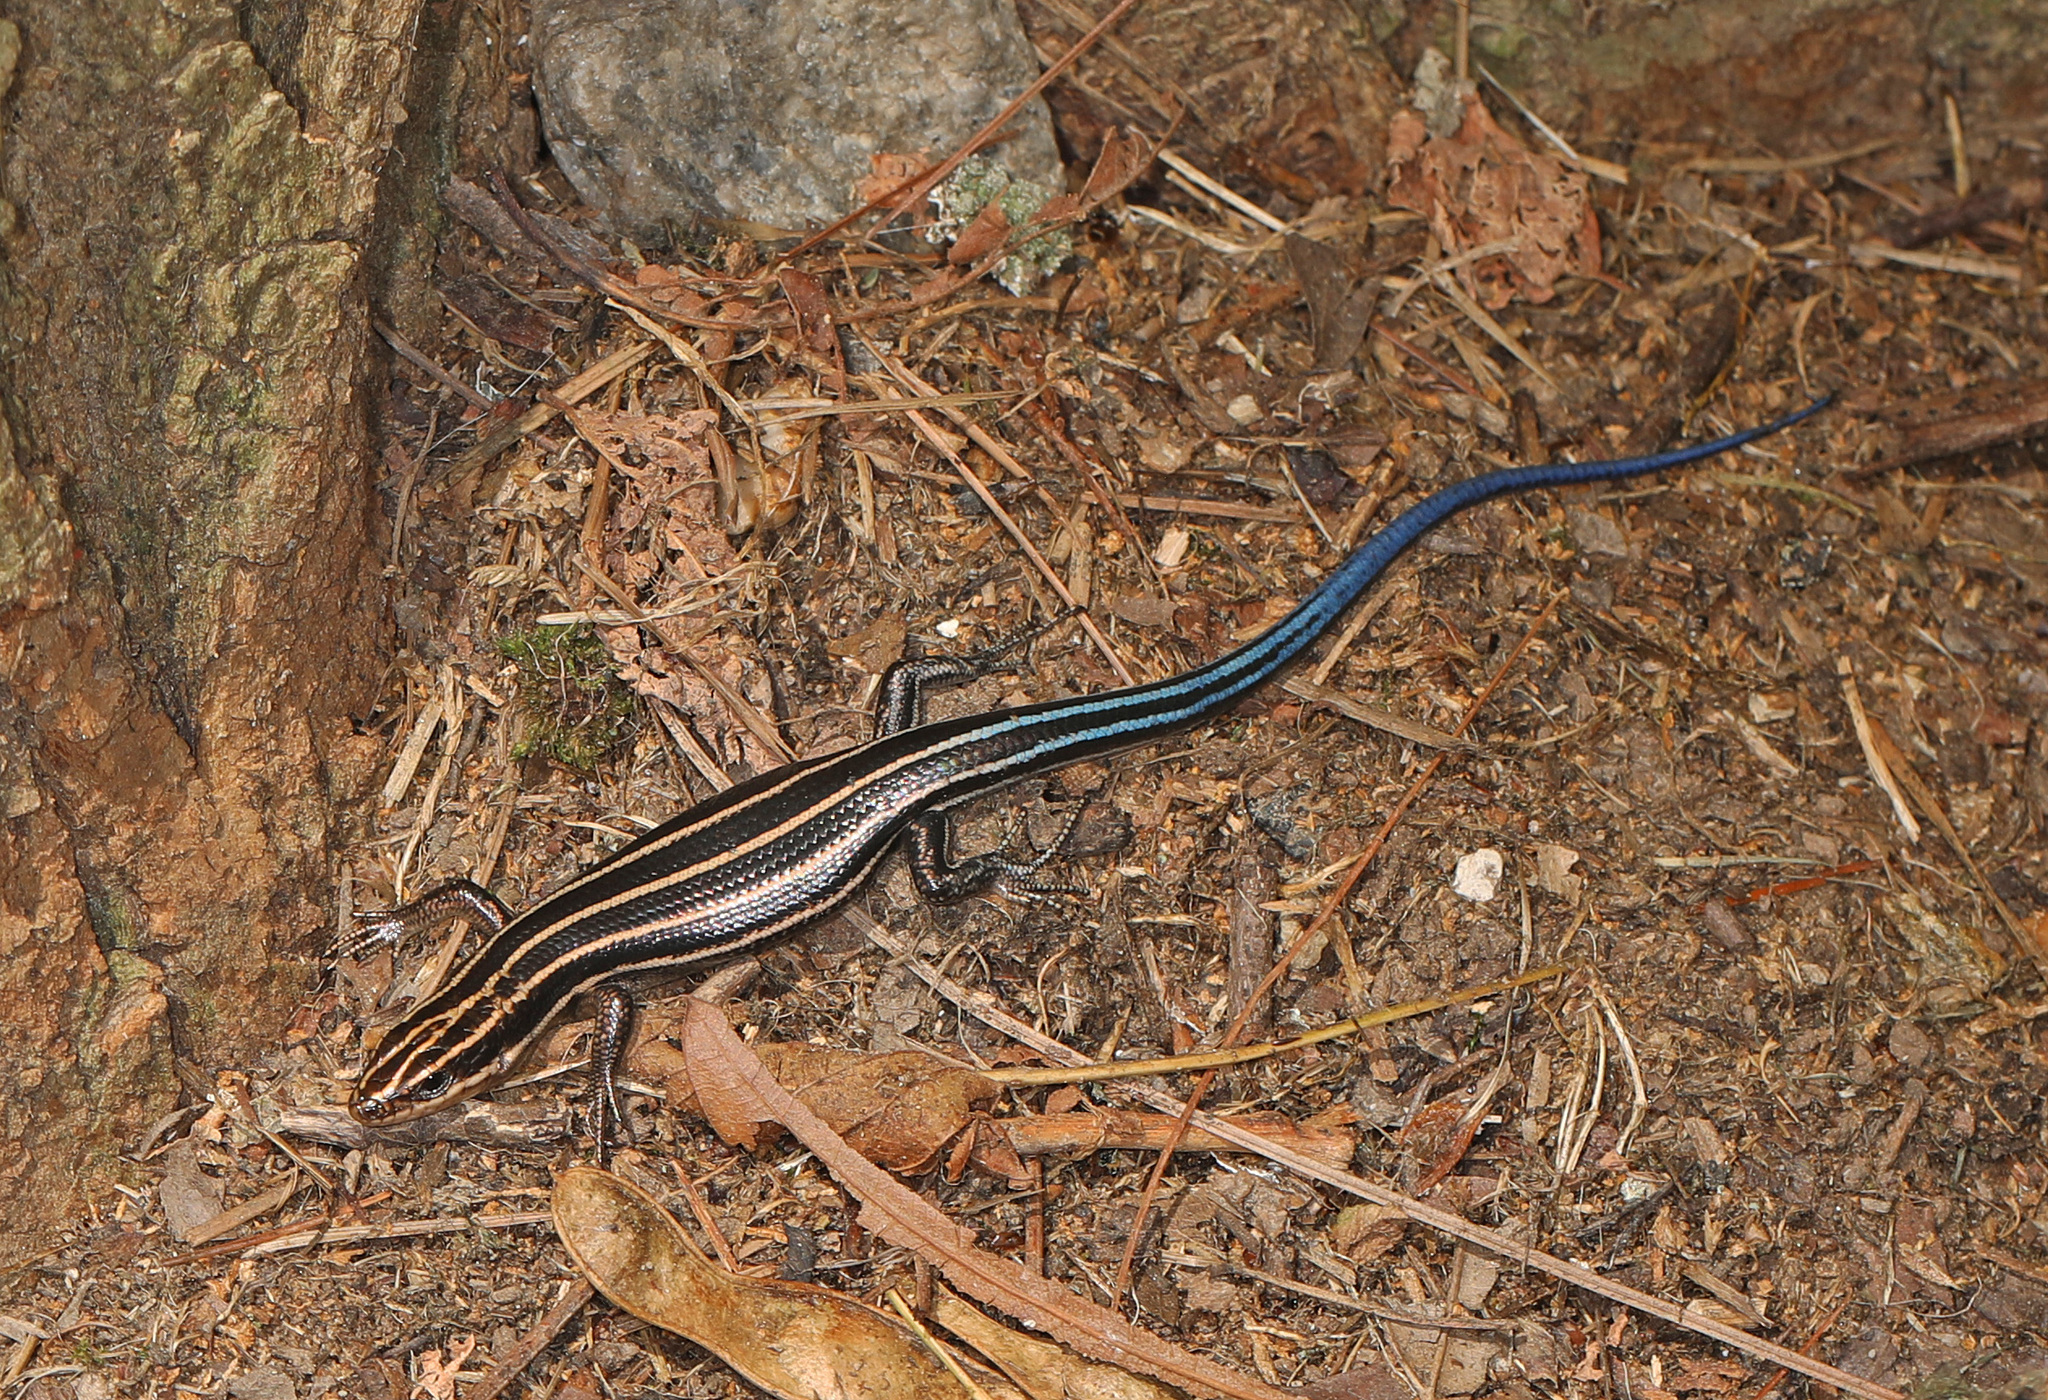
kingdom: Animalia
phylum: Chordata
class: Squamata
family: Scincidae
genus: Plestiodon
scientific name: Plestiodon fasciatus
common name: Five-lined skink
